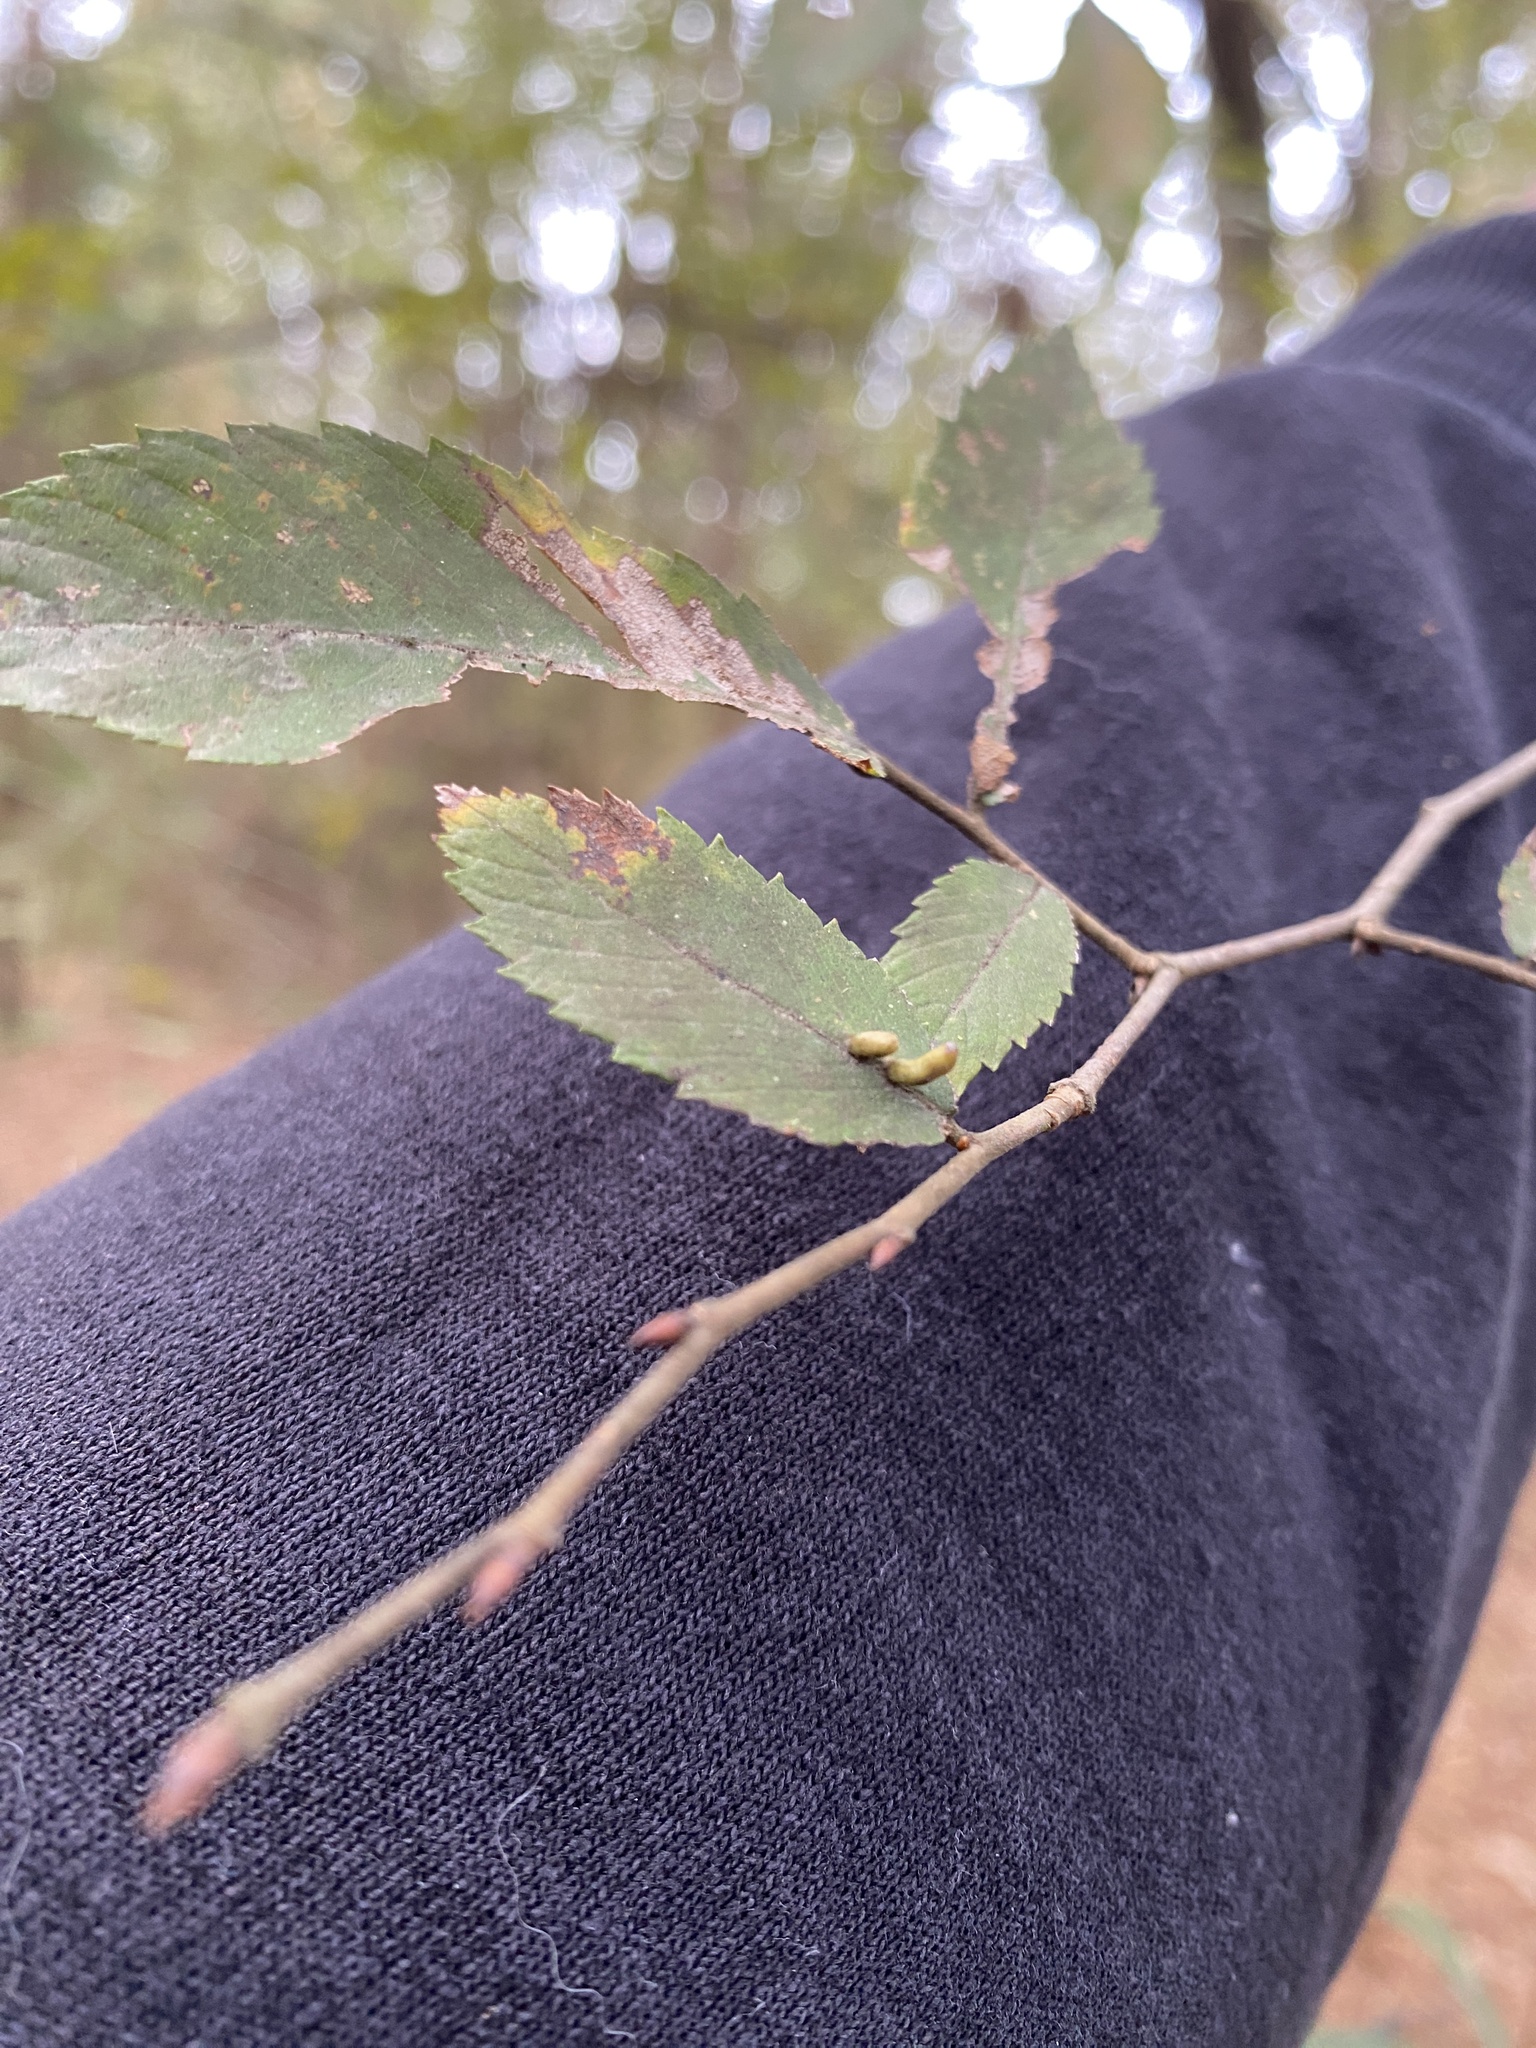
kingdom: Animalia
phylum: Arthropoda
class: Arachnida
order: Trombidiformes
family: Eriophyidae
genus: Aceria
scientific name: Aceria
